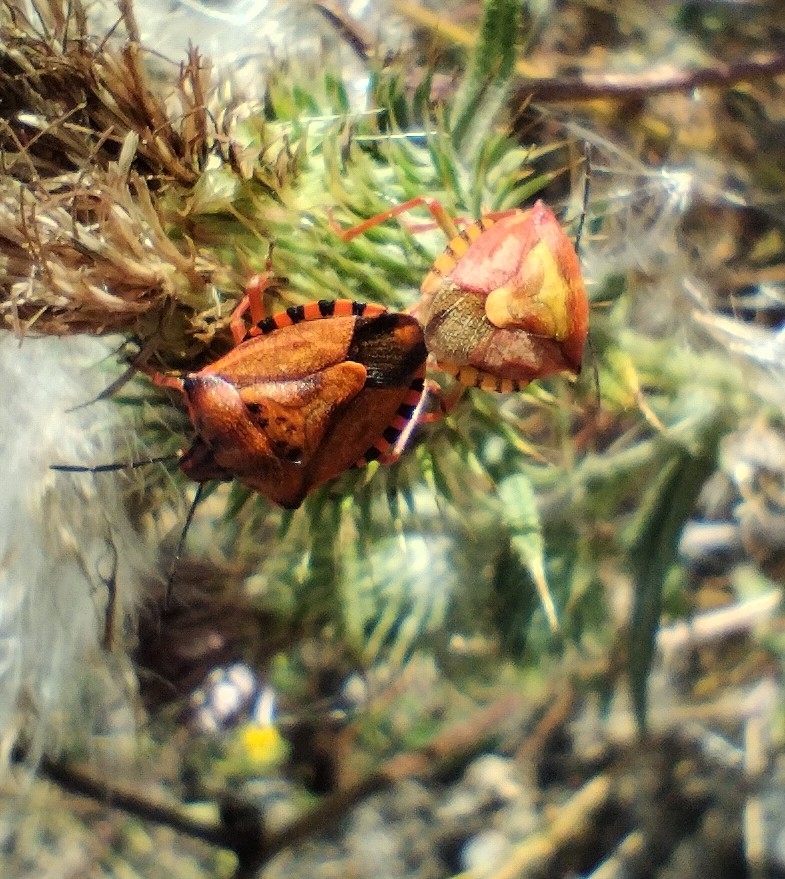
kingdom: Animalia
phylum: Arthropoda
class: Insecta
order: Hemiptera
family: Pentatomidae
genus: Carpocoris
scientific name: Carpocoris mediterraneus
